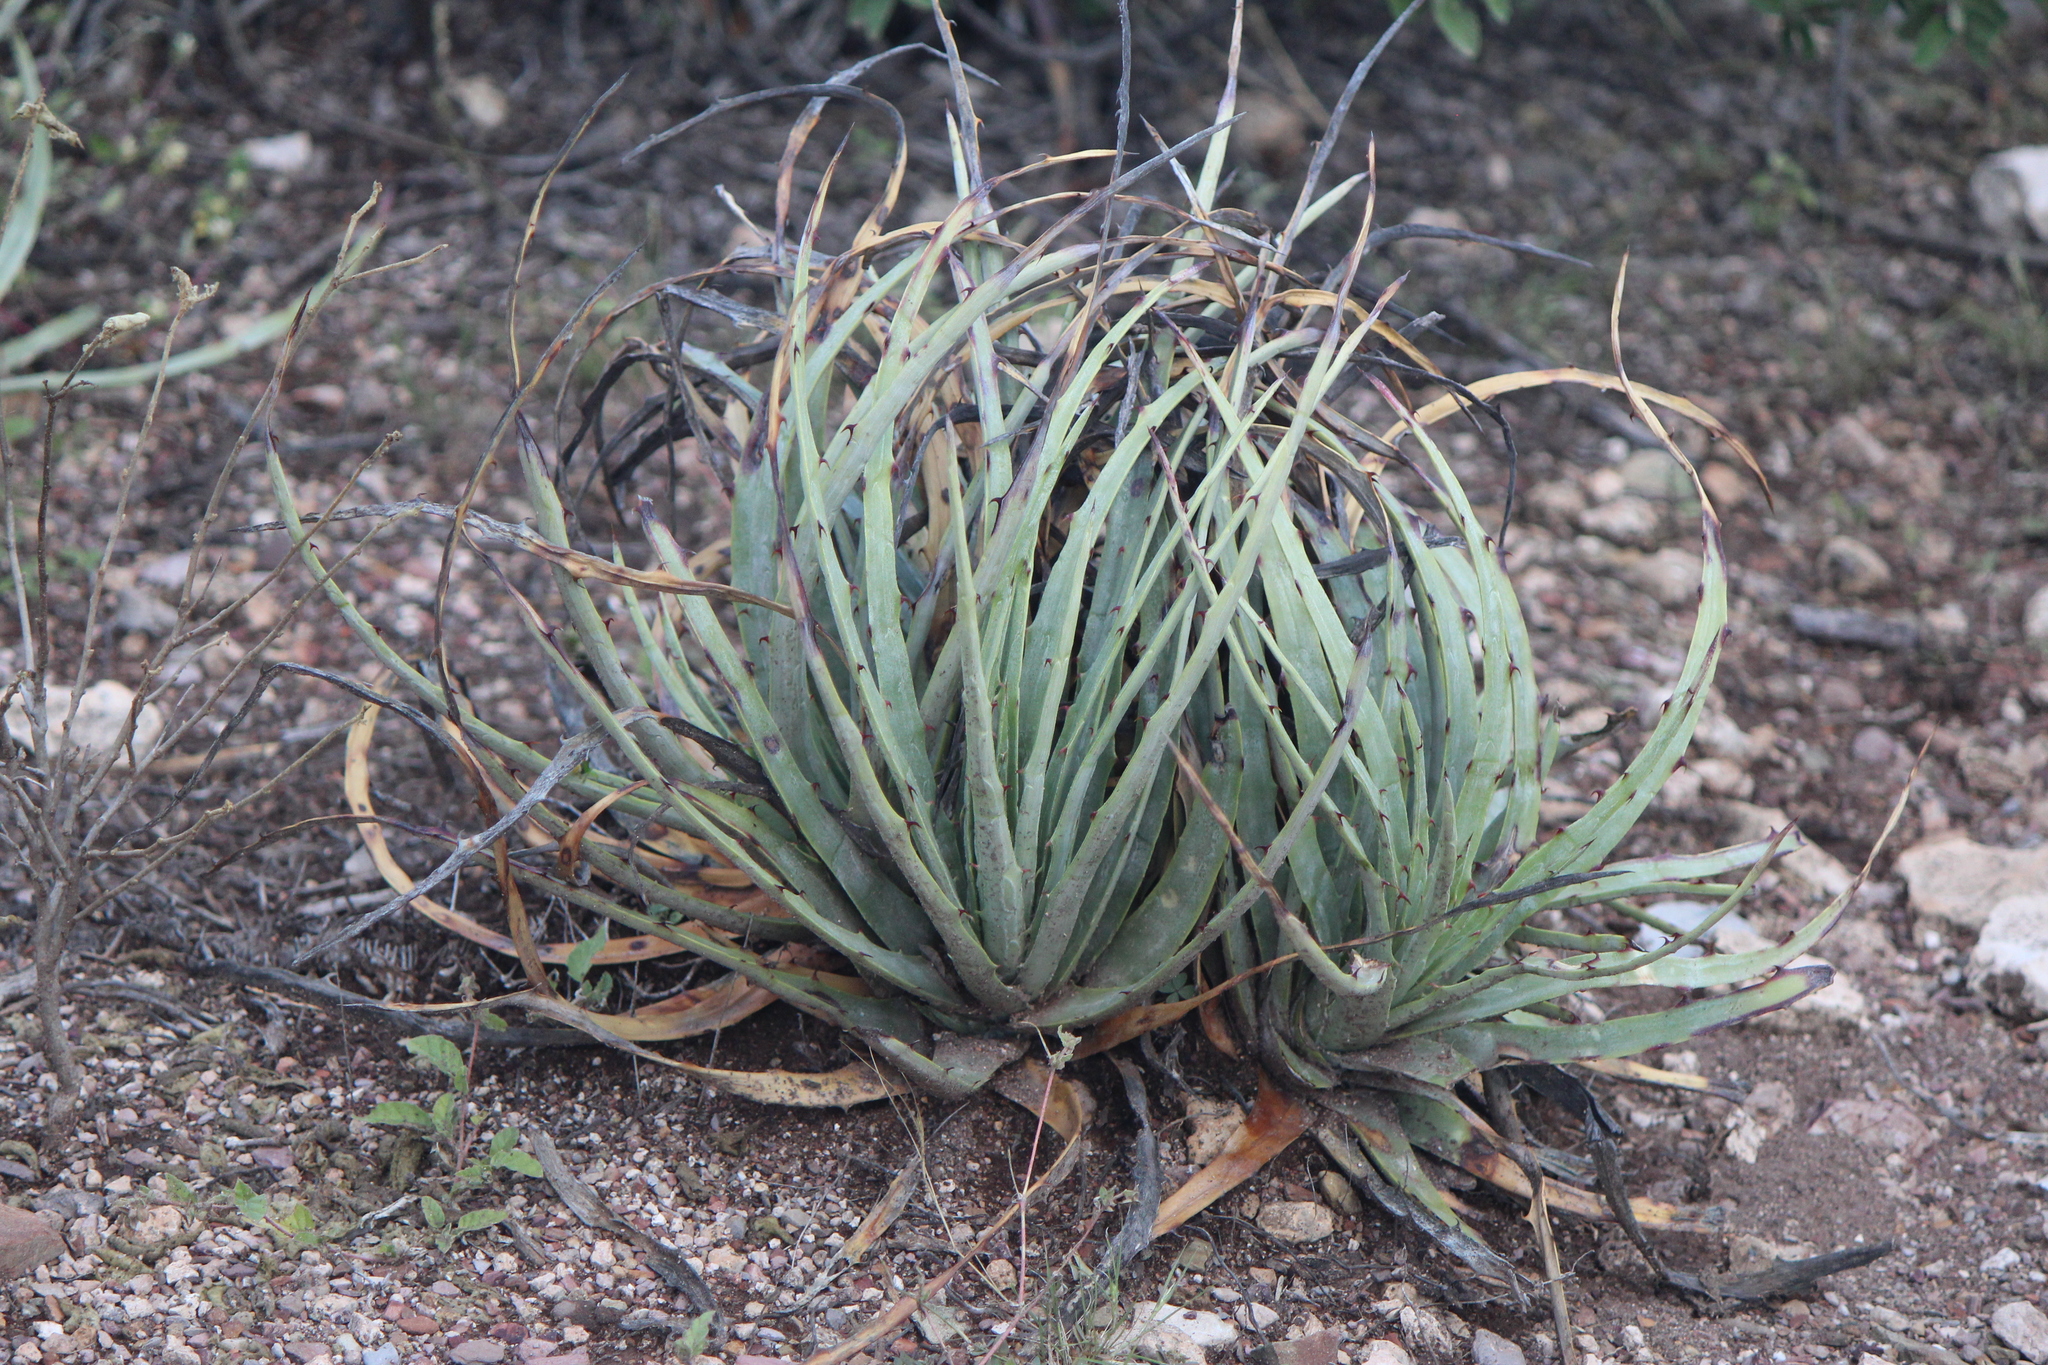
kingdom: Plantae
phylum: Tracheophyta
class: Liliopsida
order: Poales
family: Bromeliaceae
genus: Hechtia
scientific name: Hechtia podantha
